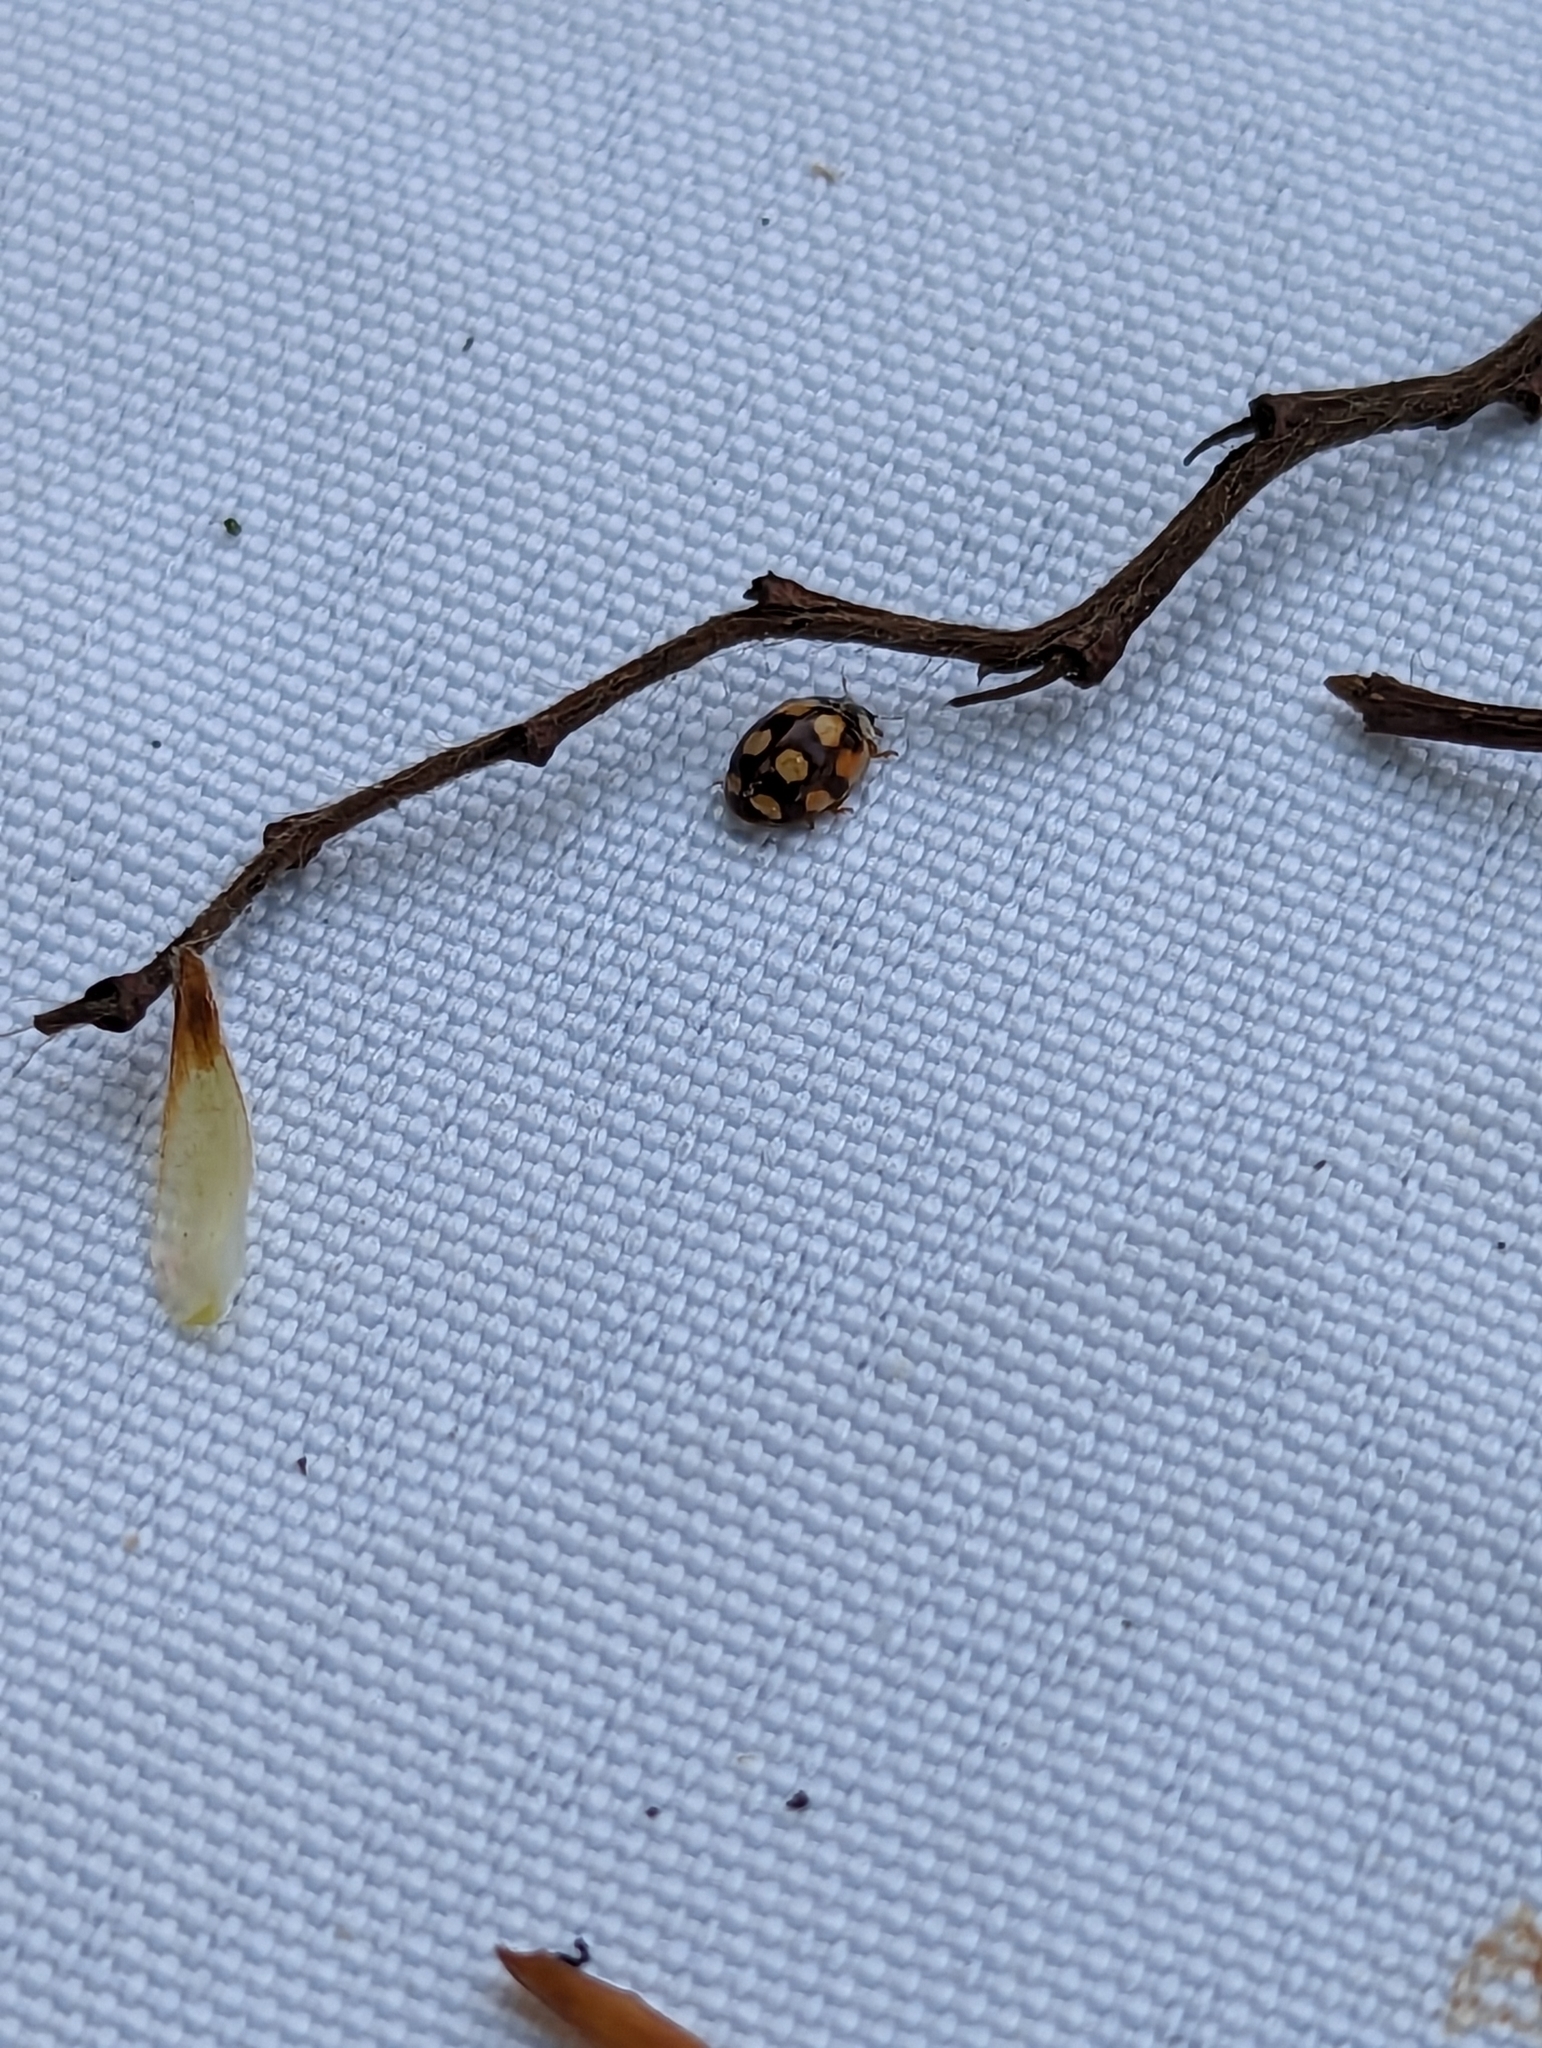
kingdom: Animalia
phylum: Arthropoda
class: Insecta
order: Coleoptera
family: Coccinellidae
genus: Adalia
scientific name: Adalia decempunctata
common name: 10-spot ladybird
